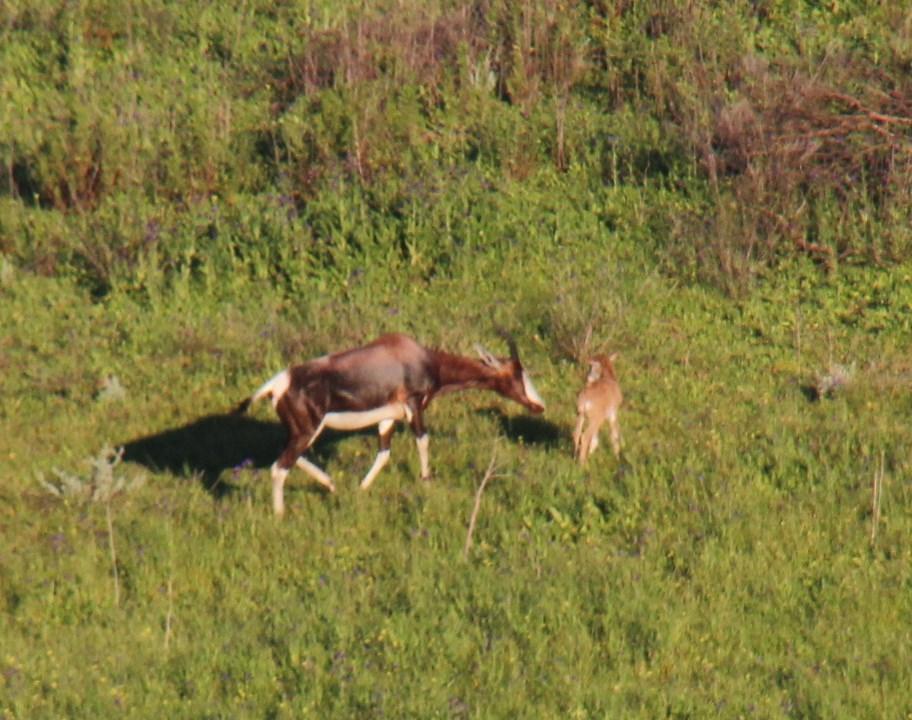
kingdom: Animalia
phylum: Chordata
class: Mammalia
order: Artiodactyla
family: Bovidae
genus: Damaliscus
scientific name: Damaliscus pygargus
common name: Bontebok
